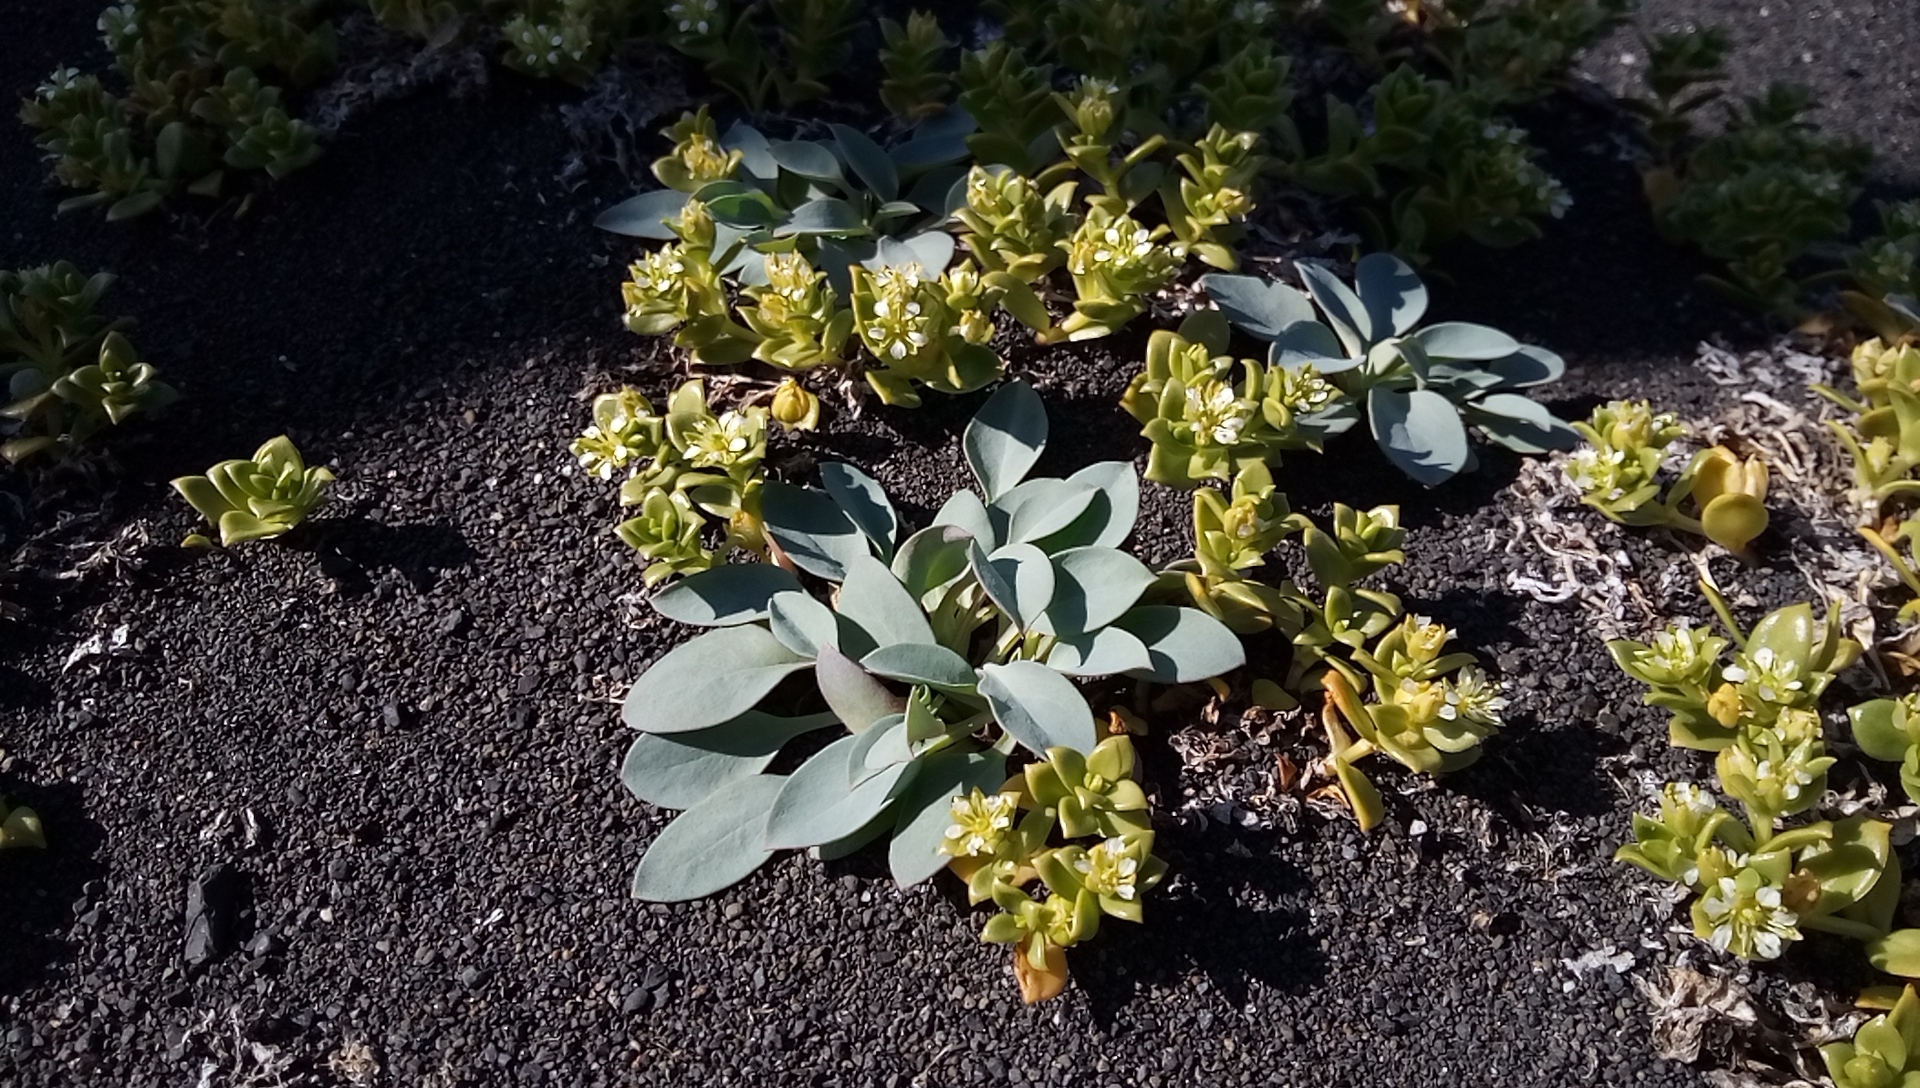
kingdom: Plantae
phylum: Tracheophyta
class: Magnoliopsida
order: Boraginales
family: Boraginaceae
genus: Mertensia
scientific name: Mertensia maritima
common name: Oysterplant
